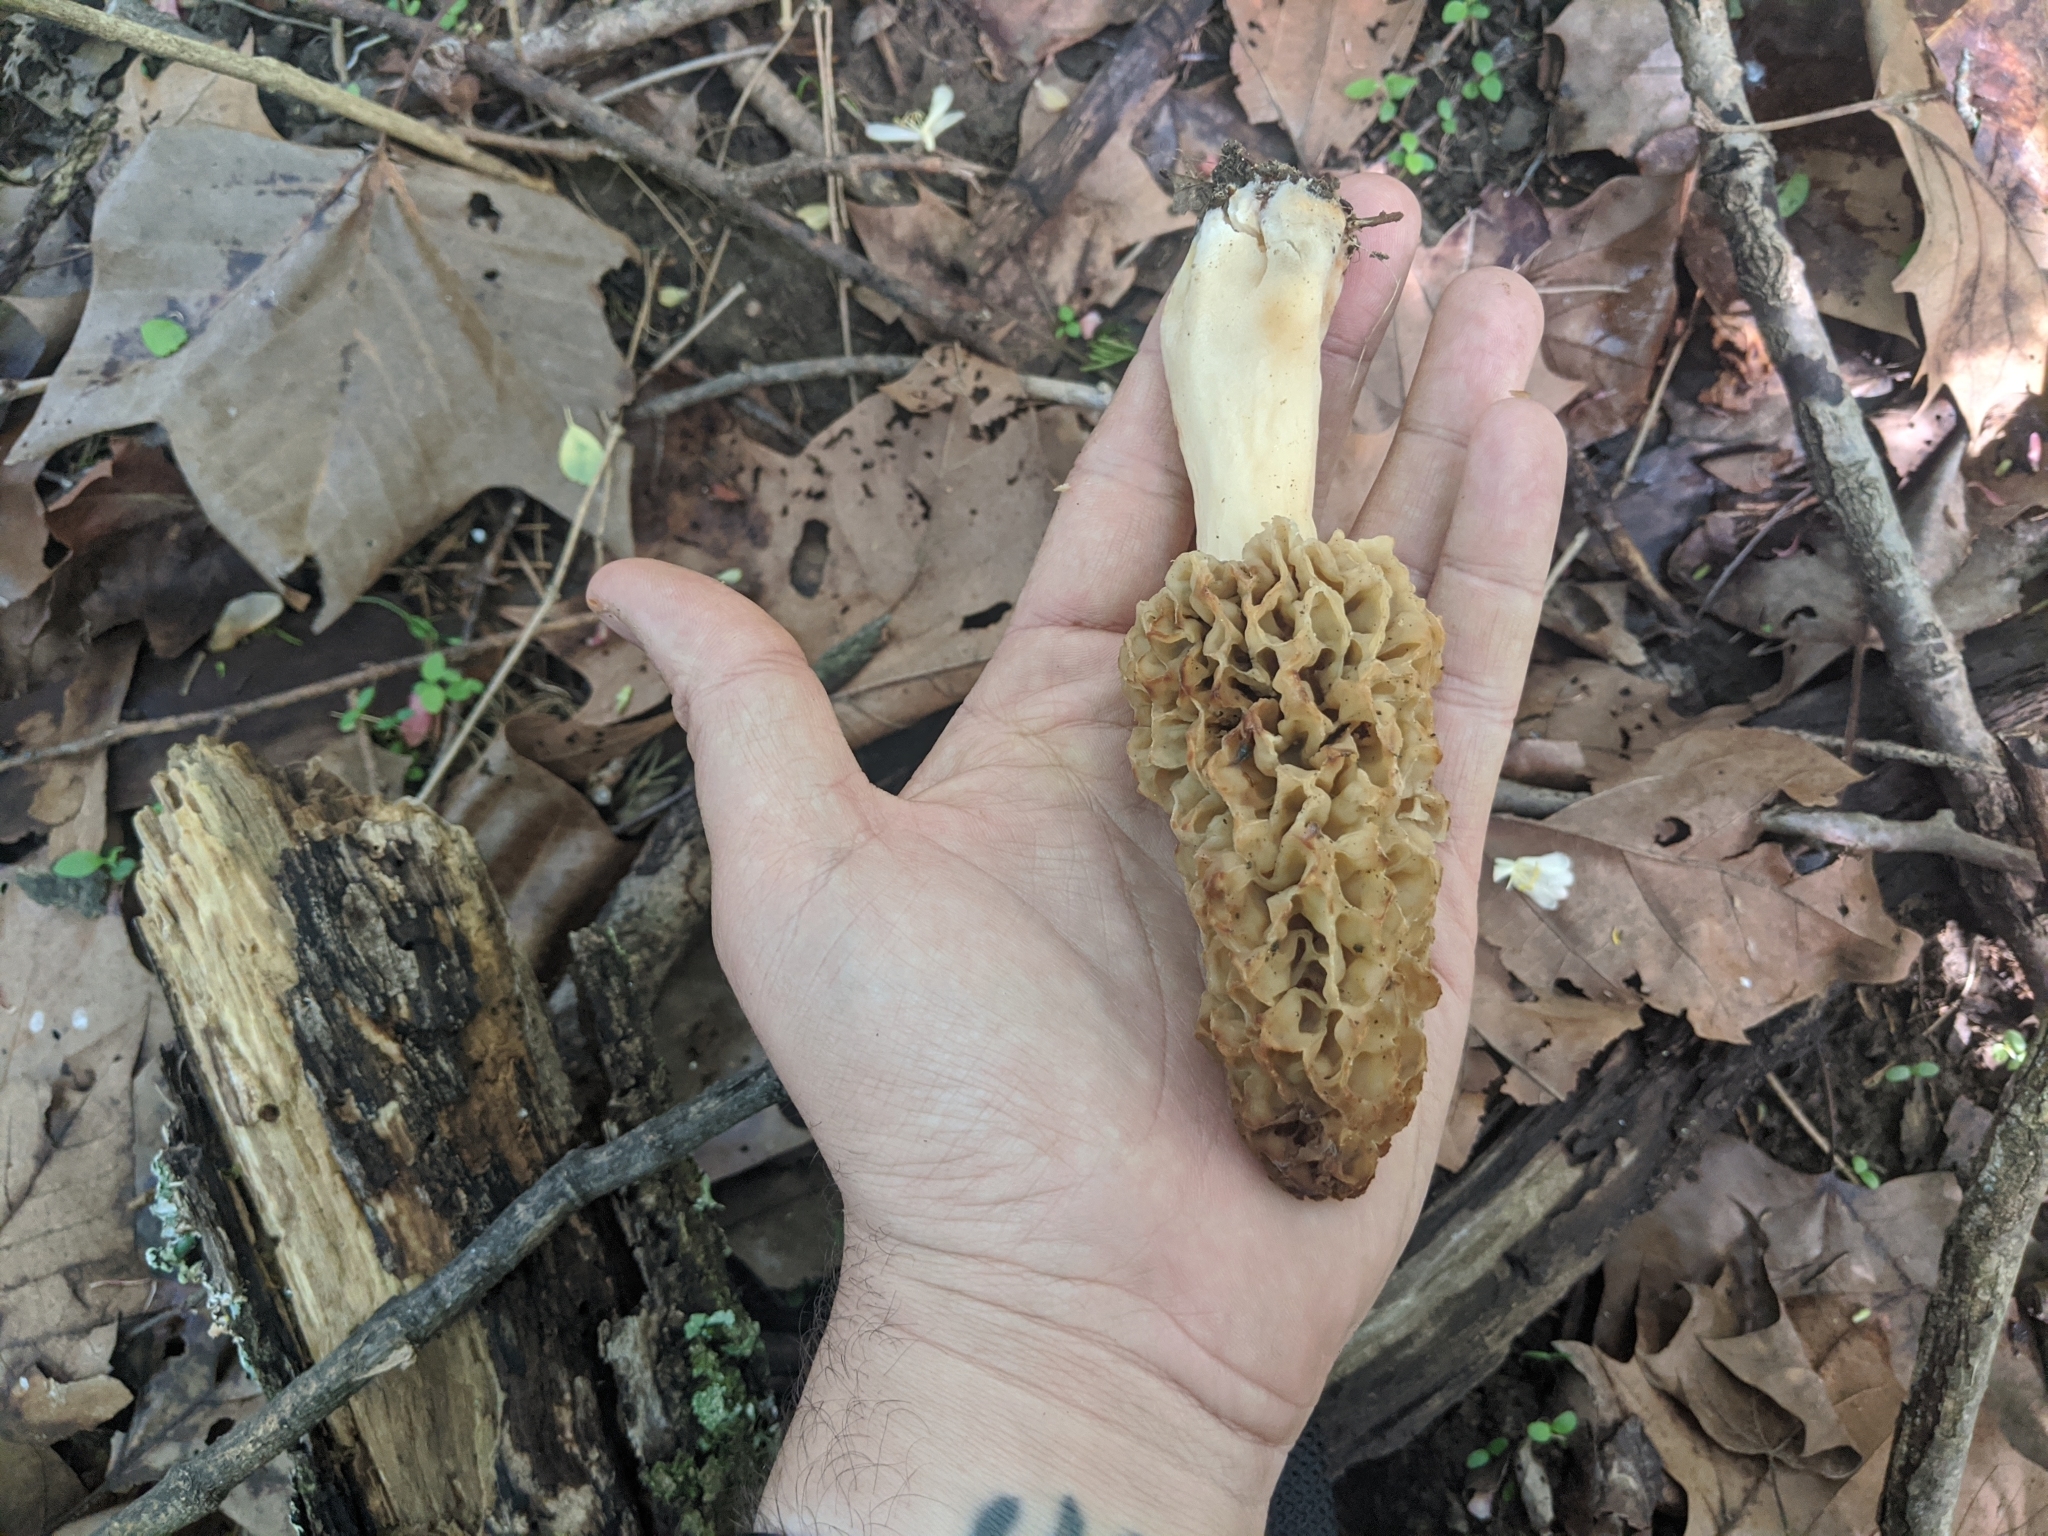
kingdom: Fungi
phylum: Ascomycota
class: Pezizomycetes
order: Pezizales
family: Morchellaceae
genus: Morchella
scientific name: Morchella americana
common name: White morel
